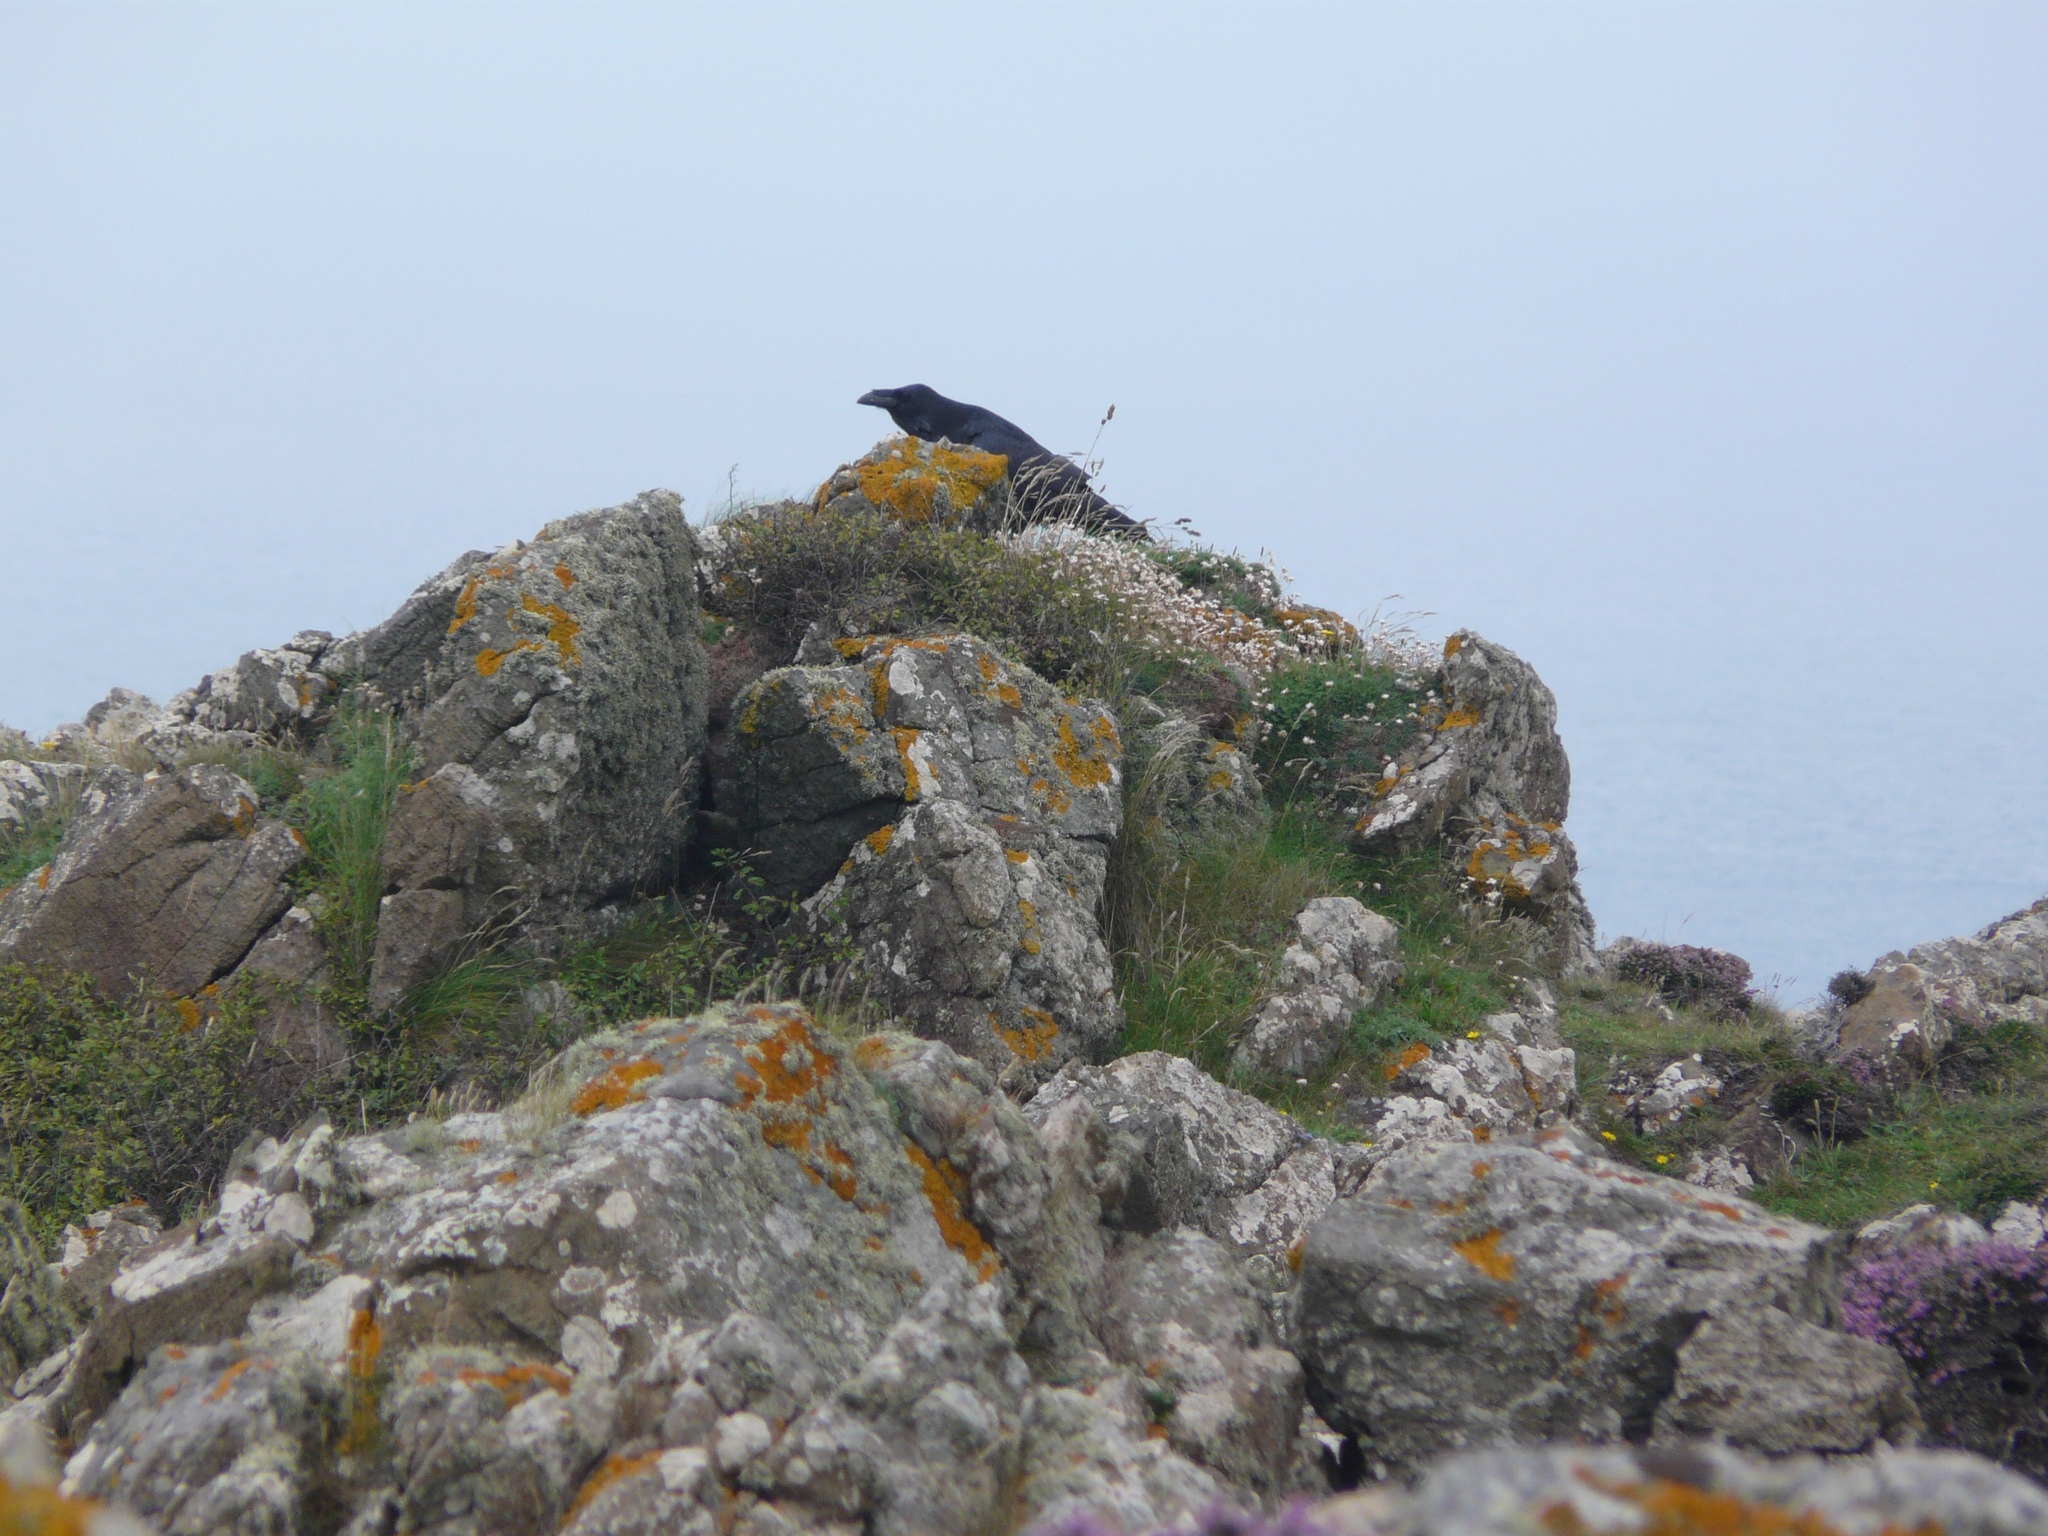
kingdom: Animalia
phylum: Chordata
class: Aves
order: Passeriformes
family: Corvidae
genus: Corvus
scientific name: Corvus corax
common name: Common raven
